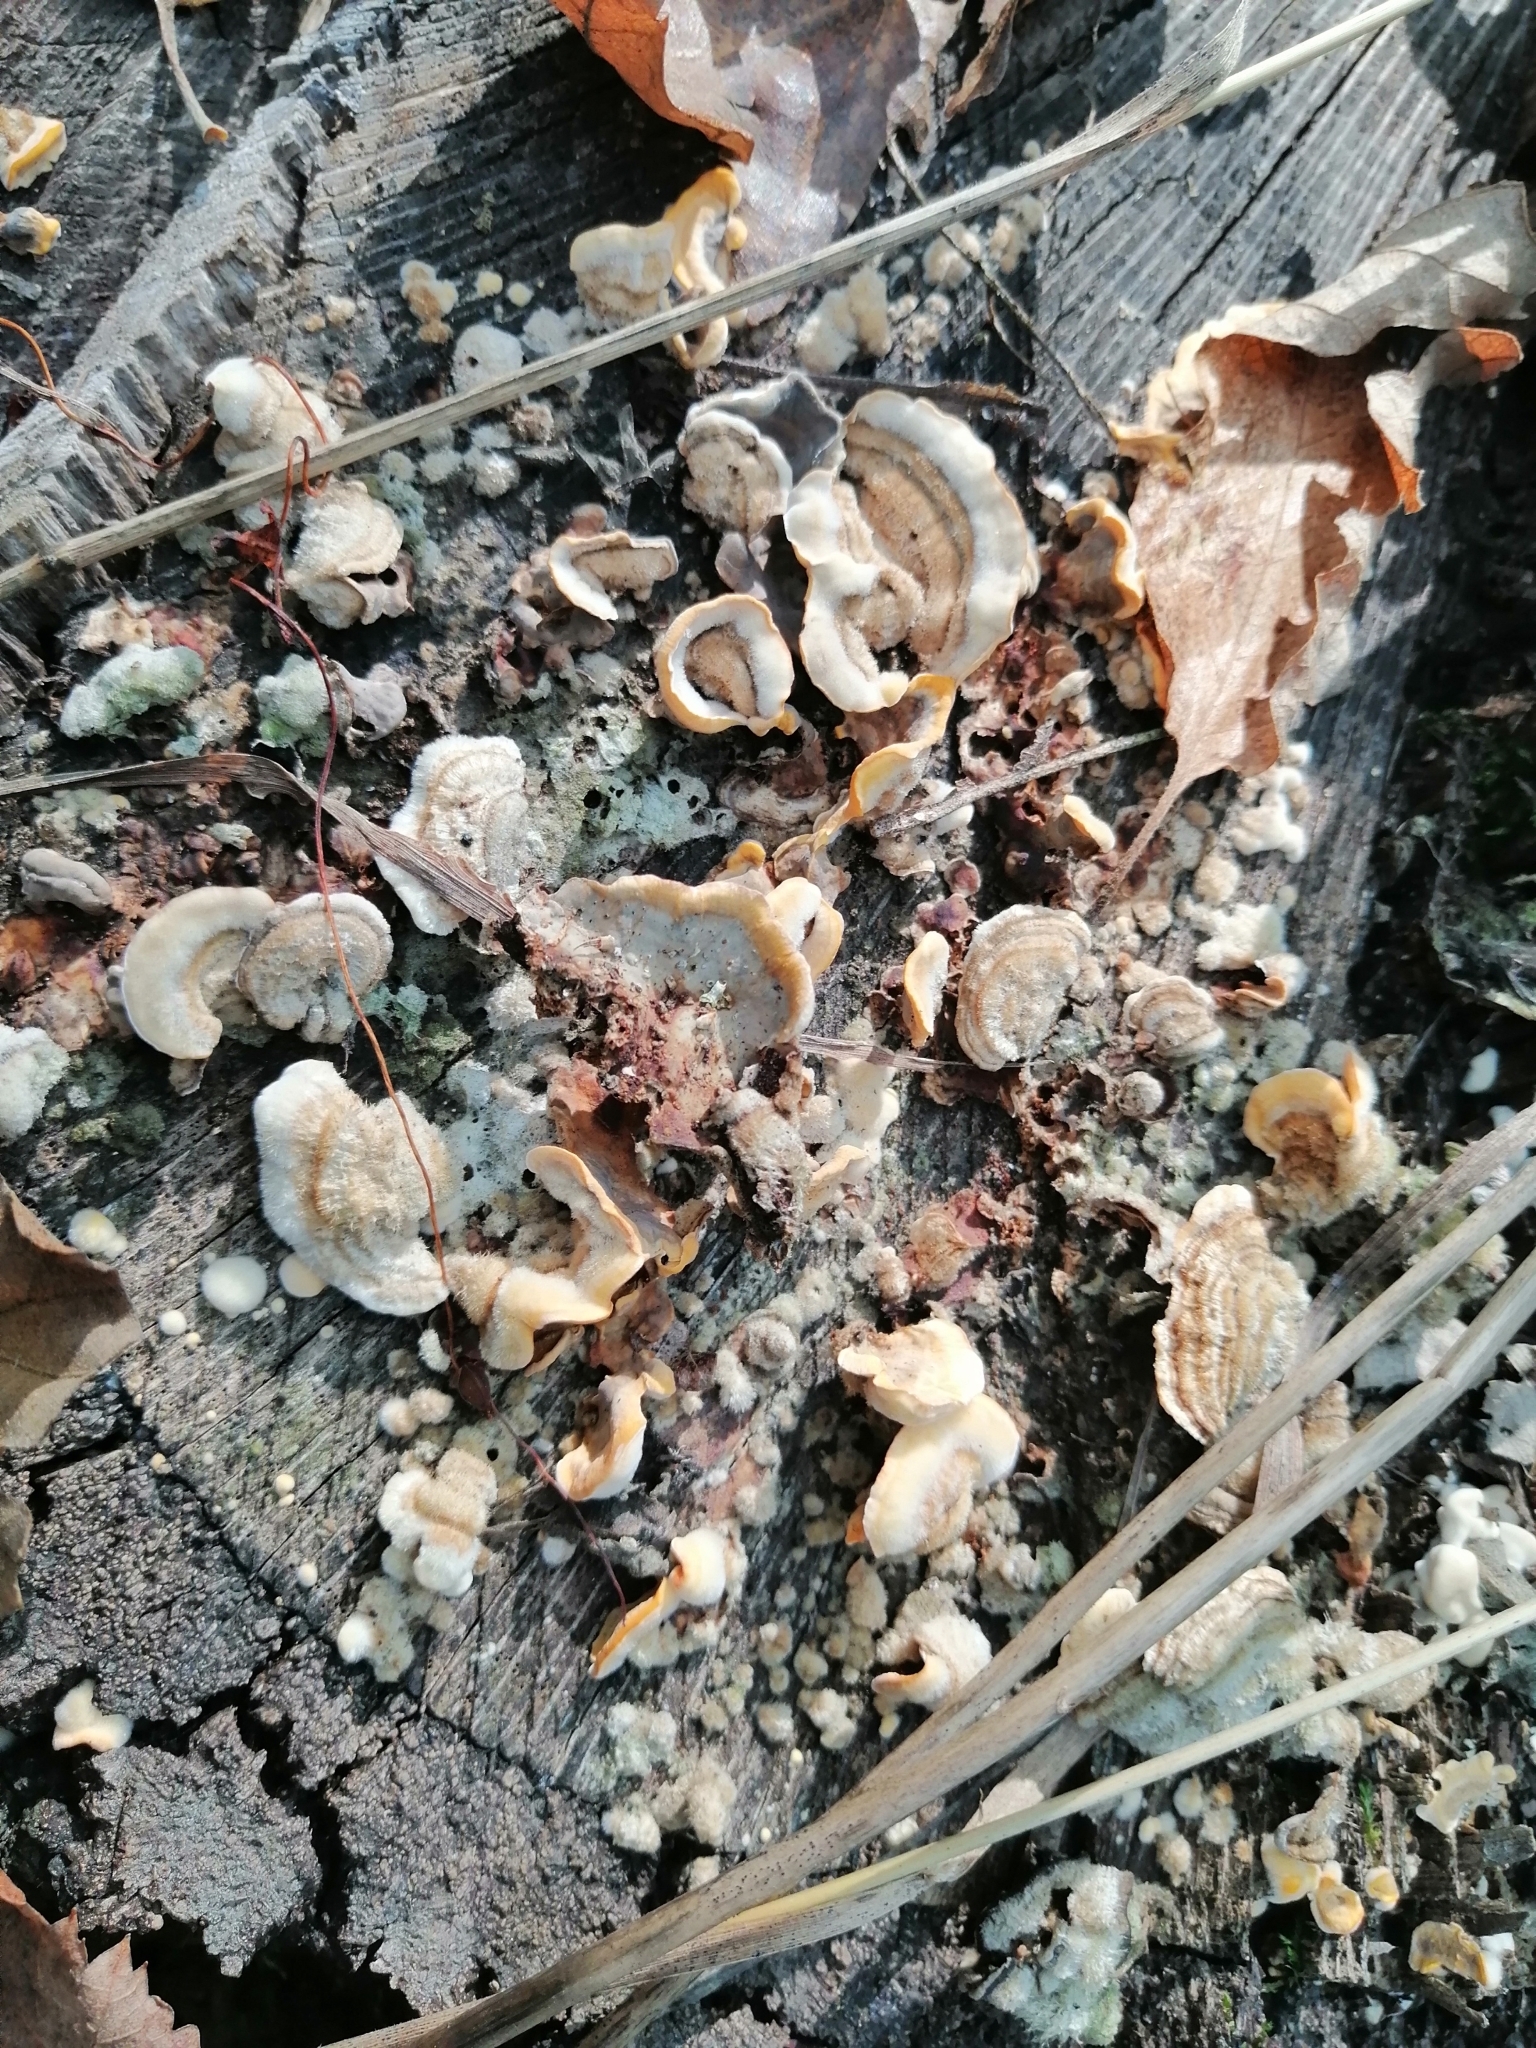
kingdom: Fungi
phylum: Basidiomycota
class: Agaricomycetes
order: Russulales
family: Stereaceae
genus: Stereum
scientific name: Stereum hirsutum
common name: Hairy curtain crust
